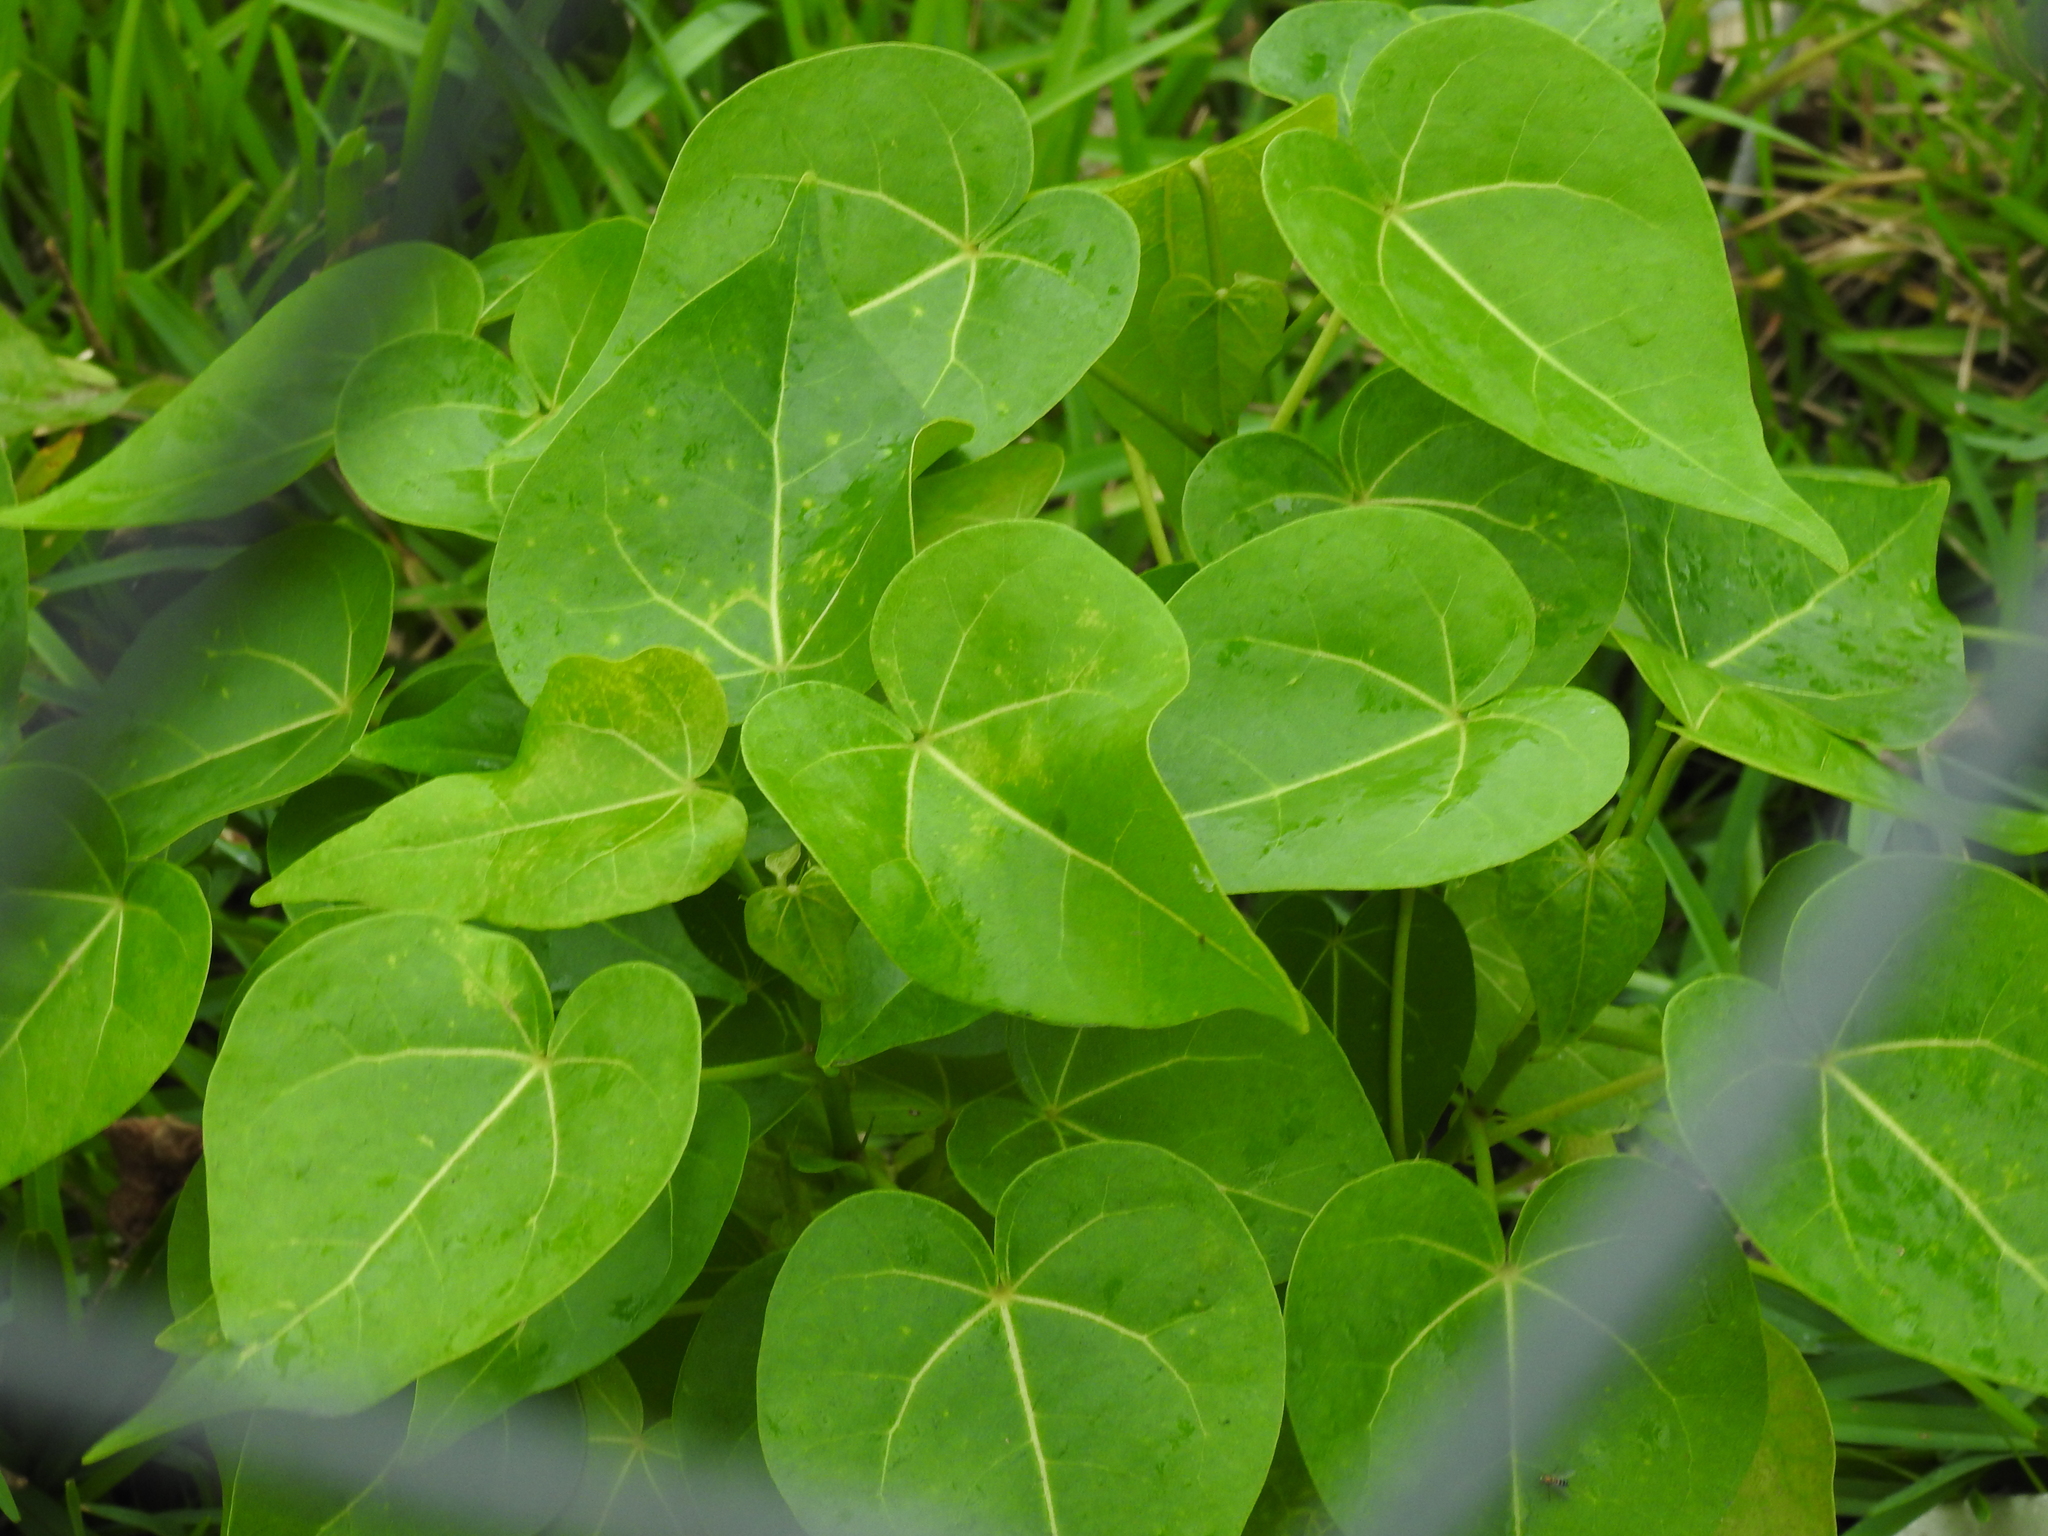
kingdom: Plantae
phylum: Tracheophyta
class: Magnoliopsida
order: Malvales
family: Malvaceae
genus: Thespesia
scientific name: Thespesia populnea
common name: Seaside mahoe
